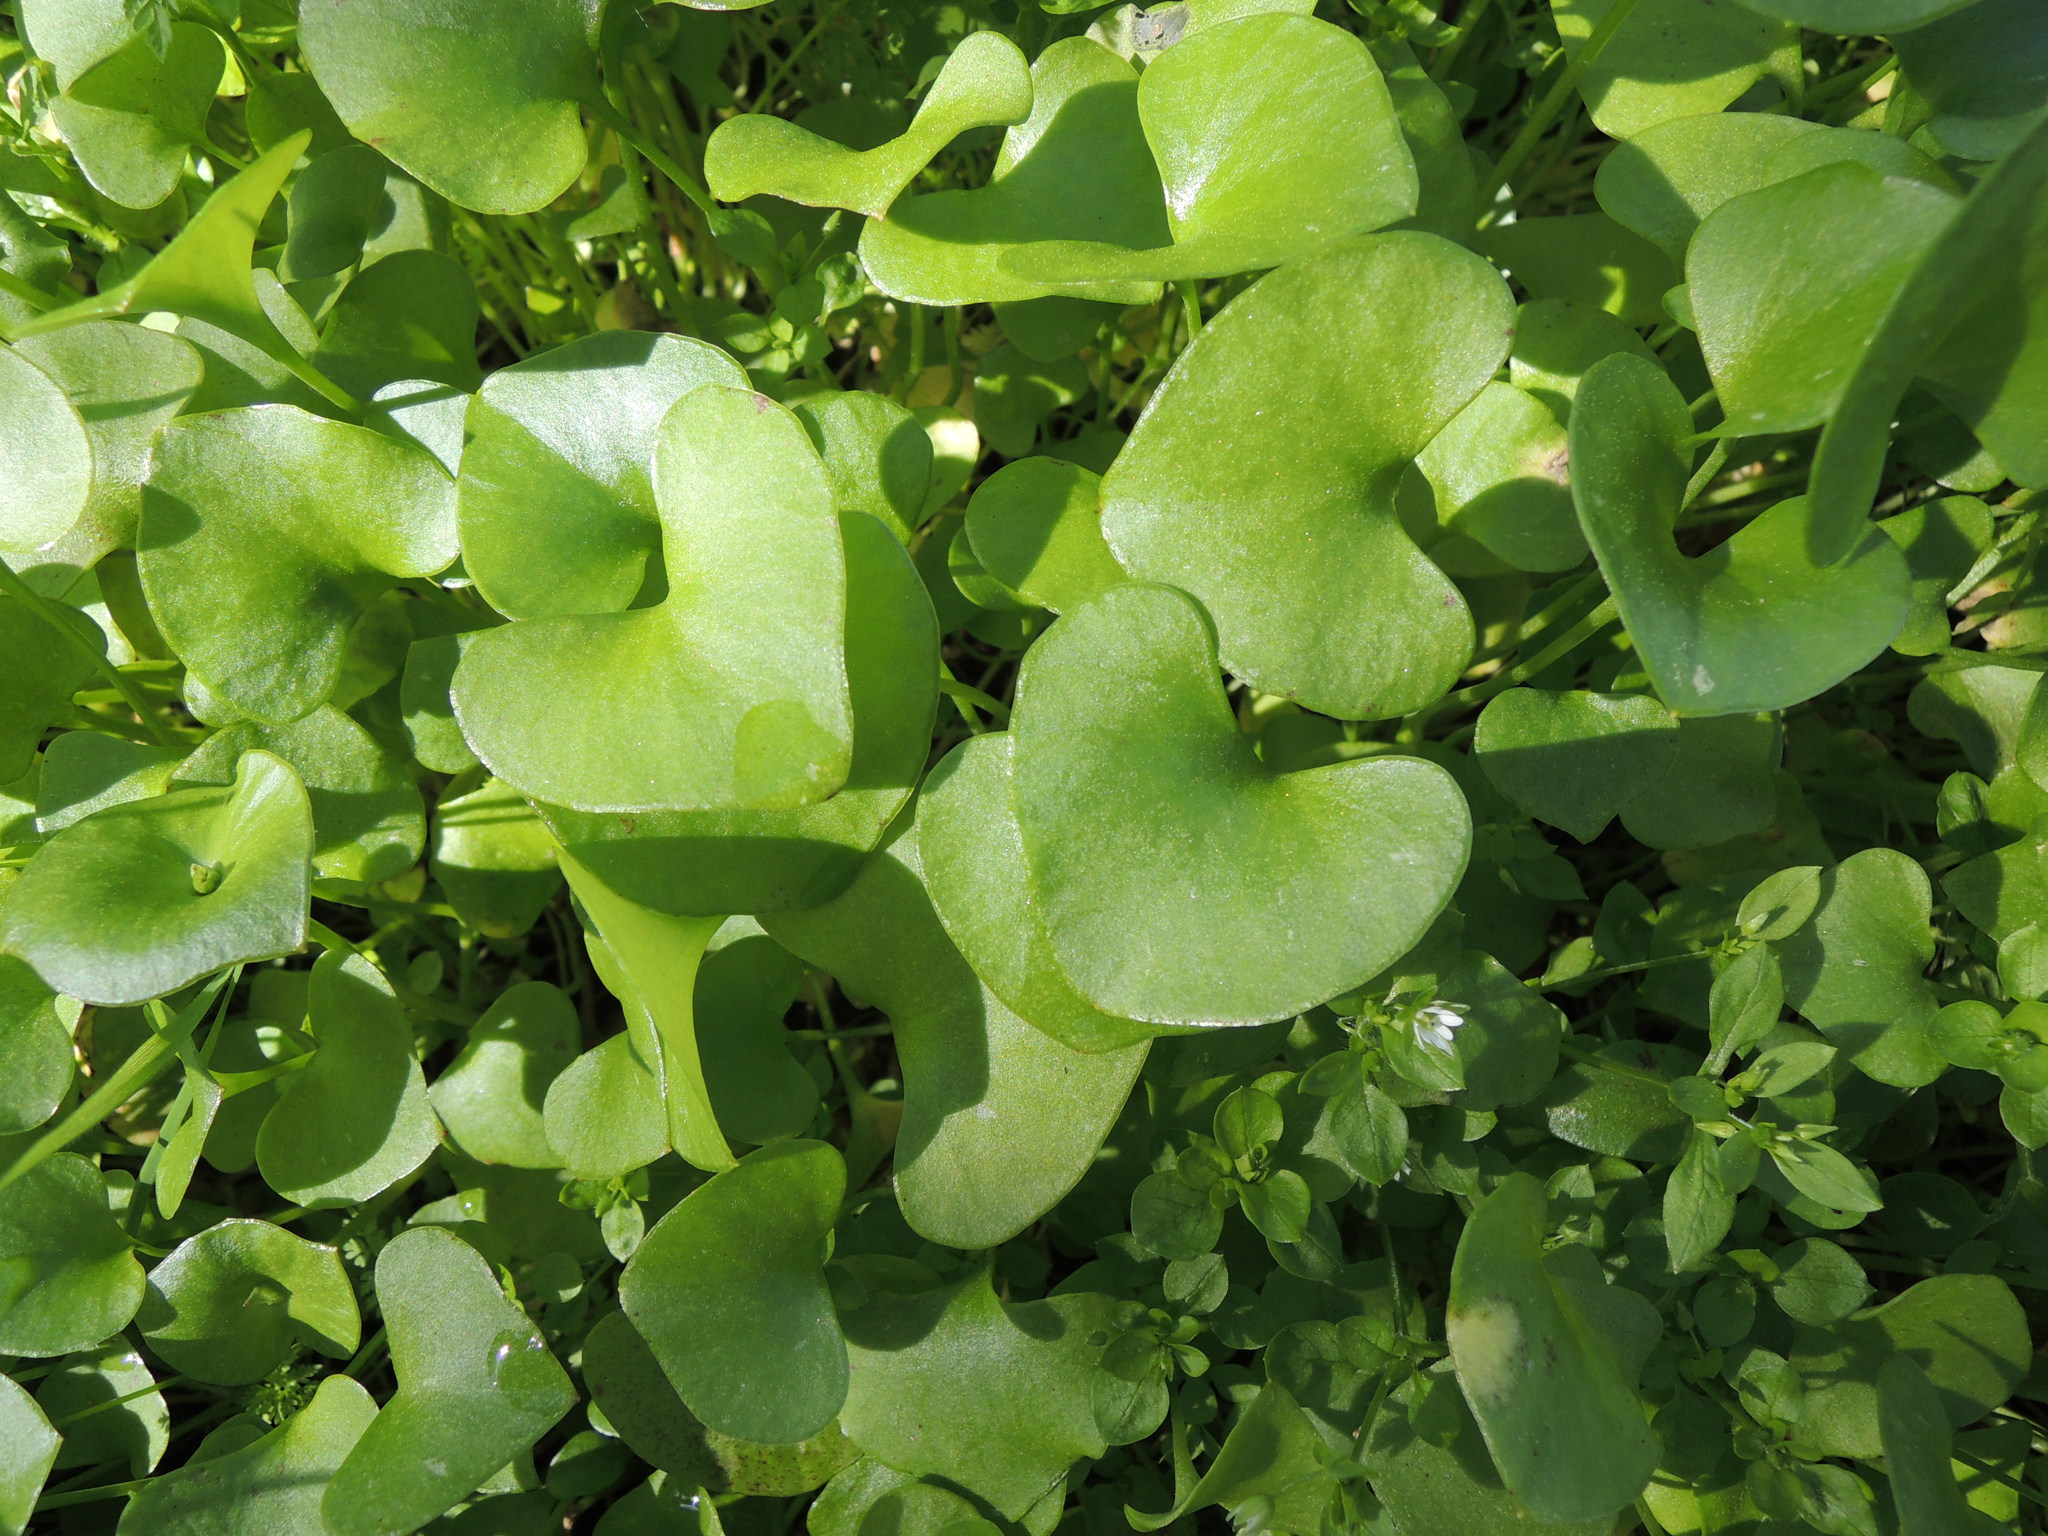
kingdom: Plantae
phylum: Tracheophyta
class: Magnoliopsida
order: Caryophyllales
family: Montiaceae
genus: Claytonia
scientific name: Claytonia perfoliata
